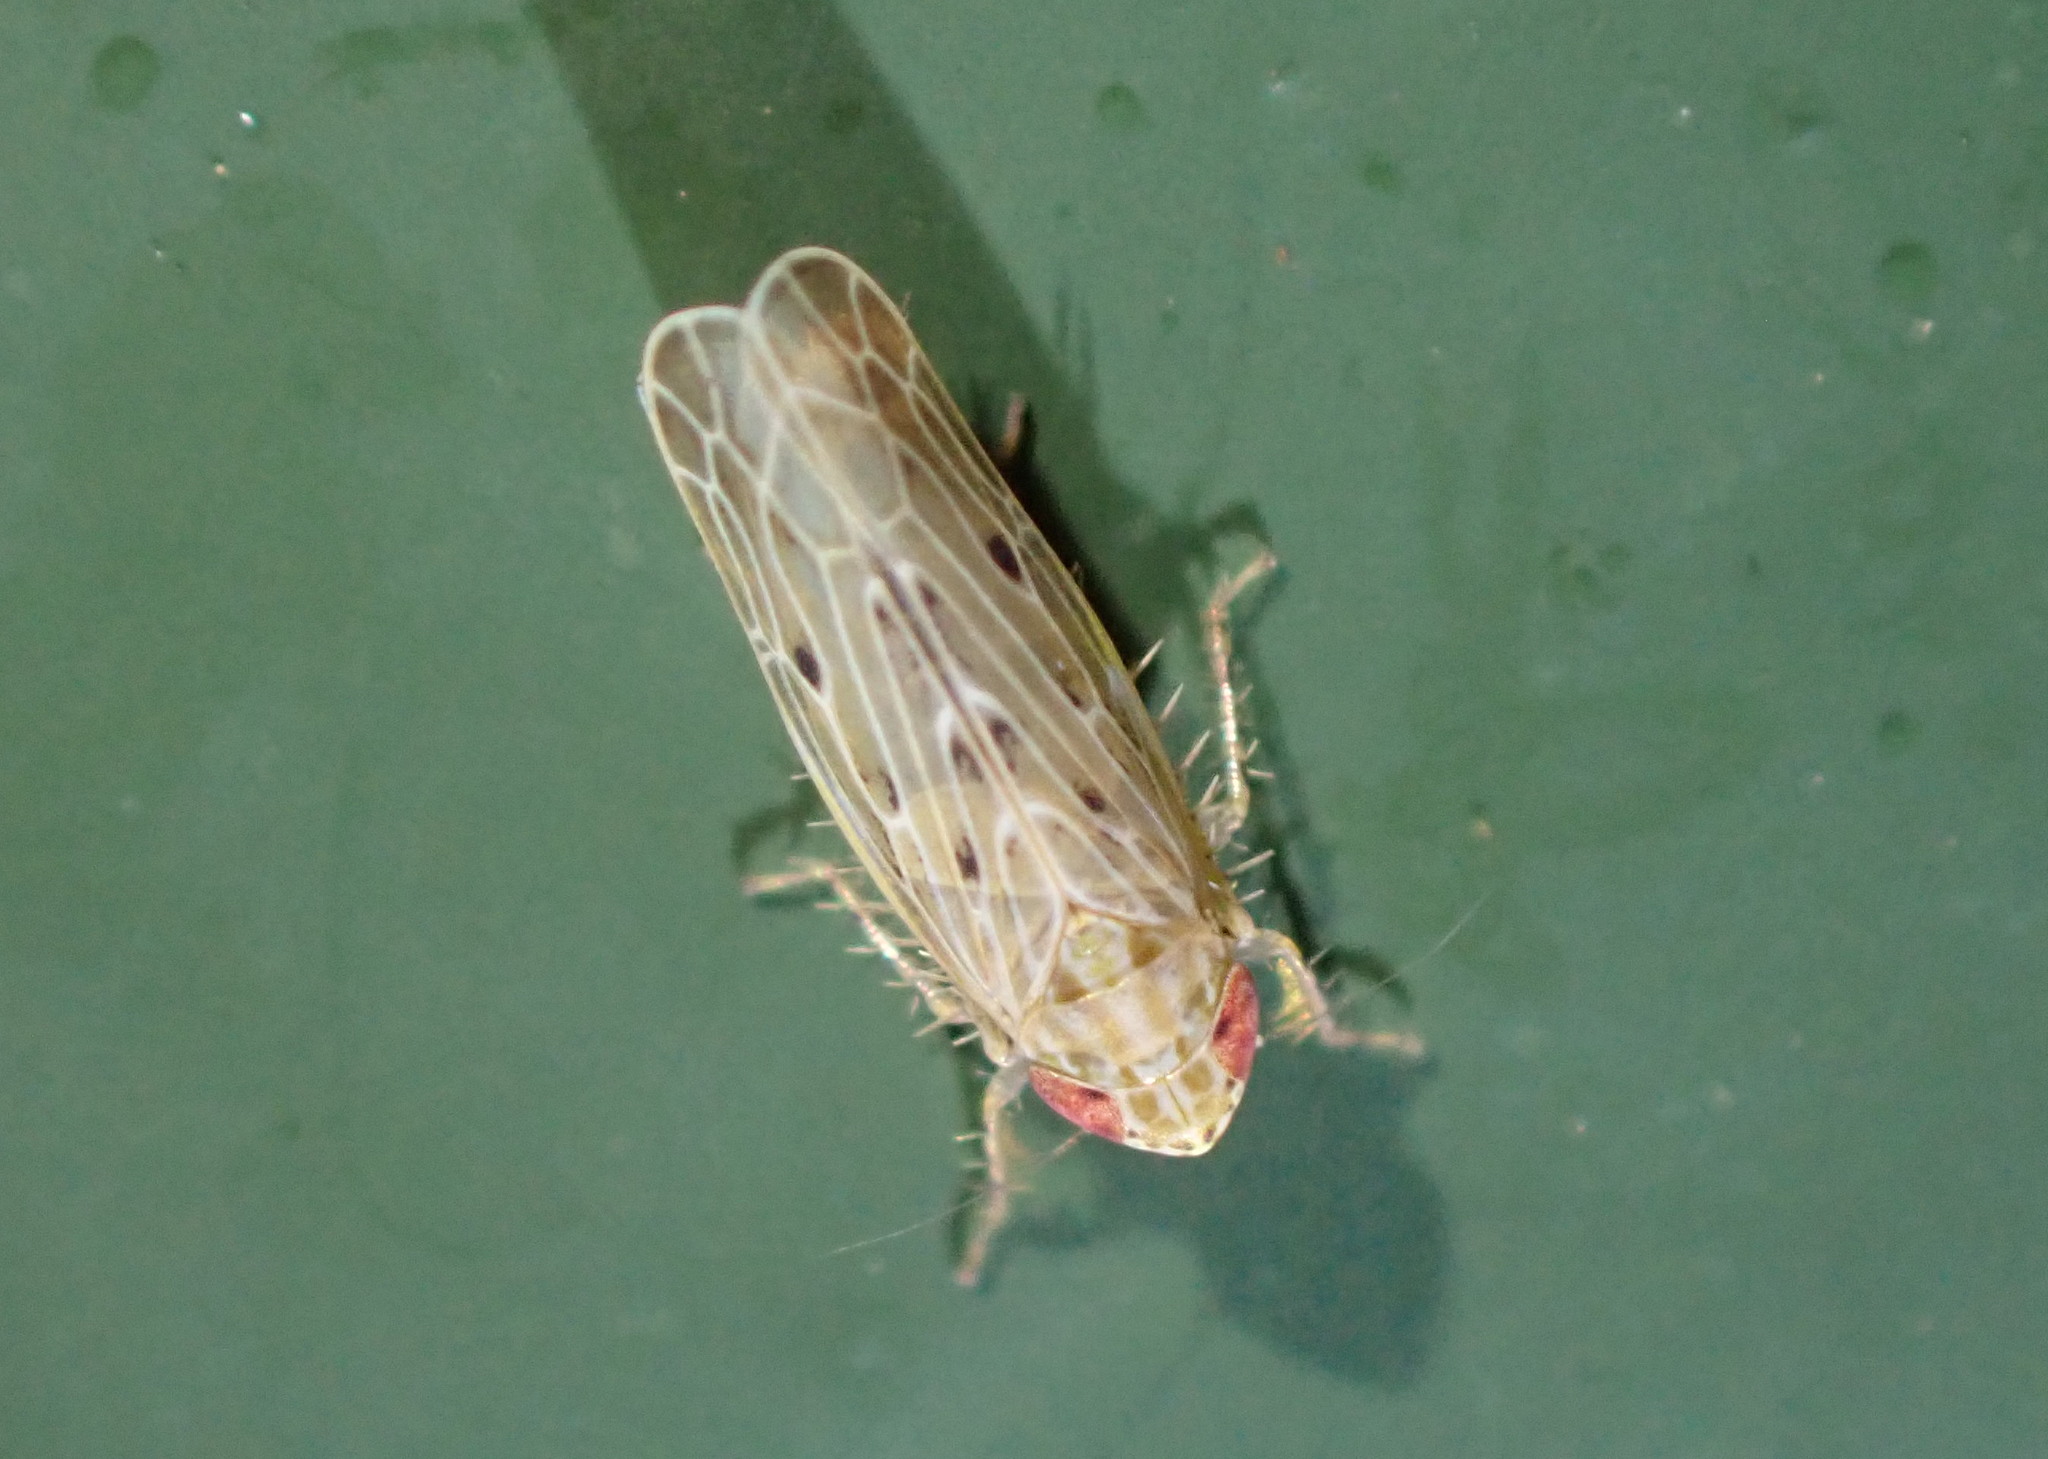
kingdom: Animalia
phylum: Arthropoda
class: Insecta
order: Hemiptera
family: Cicadellidae
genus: Maiestas
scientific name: Maiestas vetus
